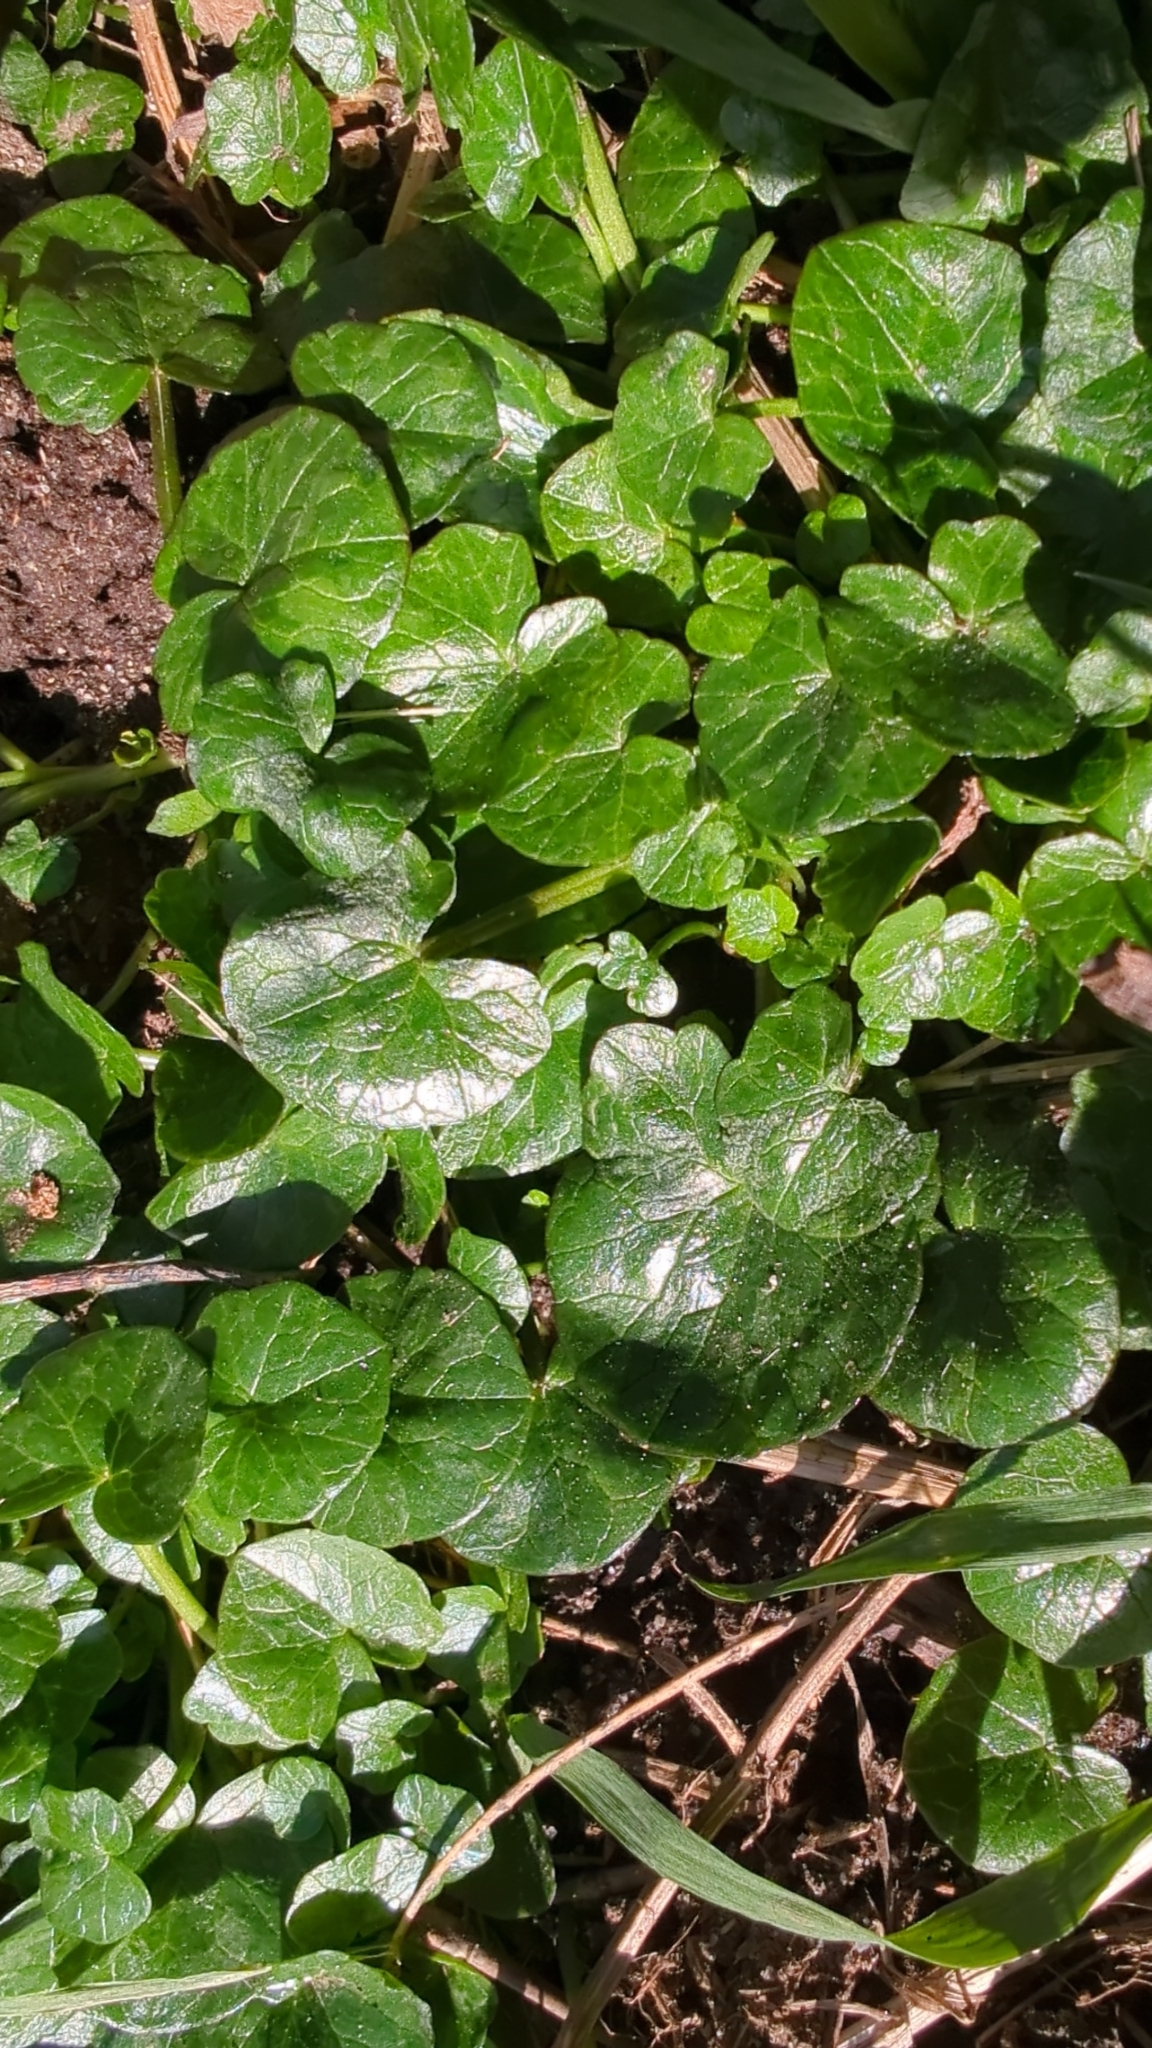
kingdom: Plantae
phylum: Tracheophyta
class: Magnoliopsida
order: Ranunculales
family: Ranunculaceae
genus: Ficaria
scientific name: Ficaria verna
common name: Lesser celandine
